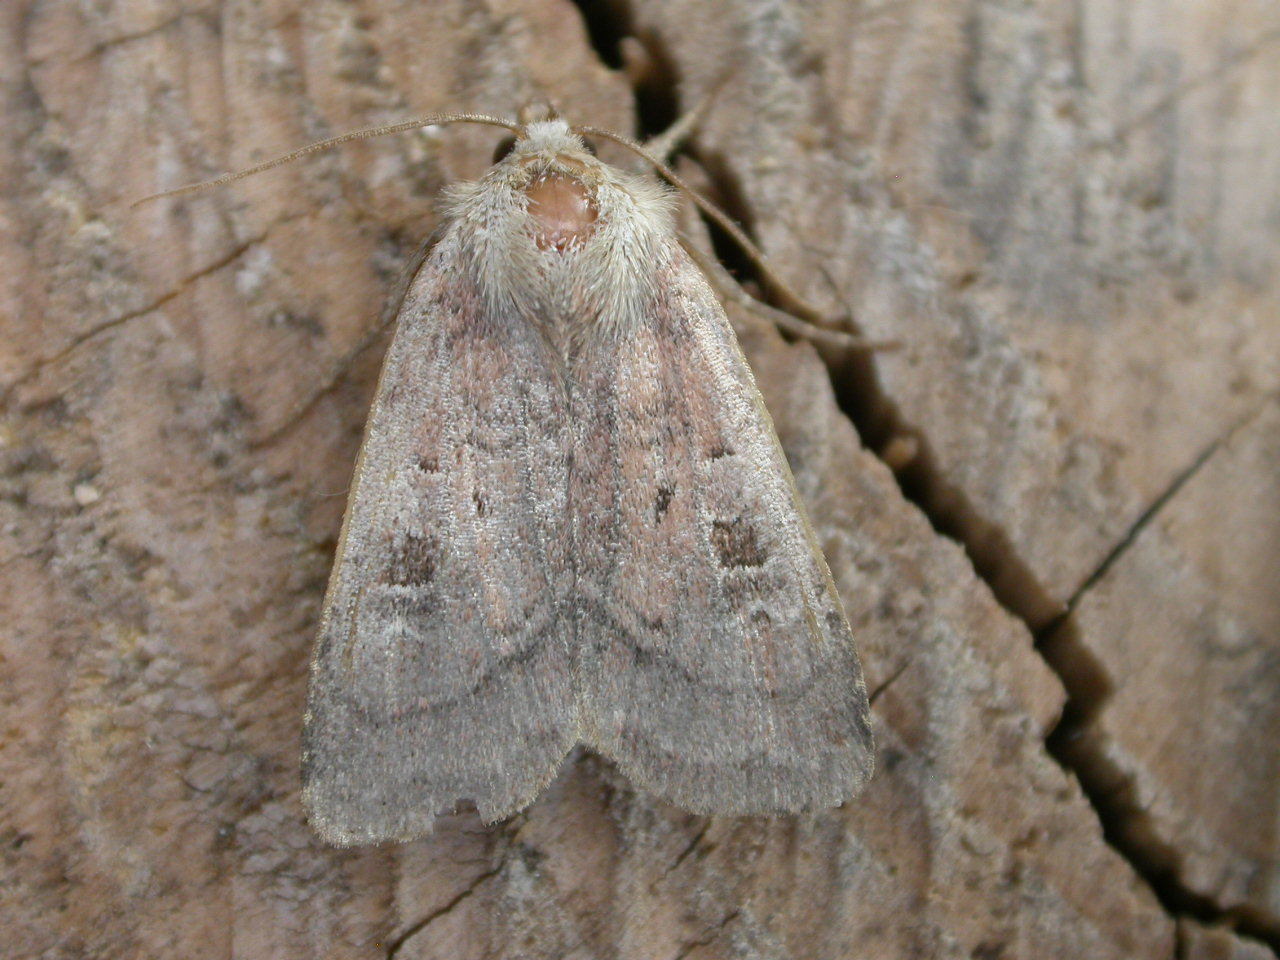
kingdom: Animalia
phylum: Arthropoda
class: Insecta
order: Lepidoptera
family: Noctuidae
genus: Diarsia
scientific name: Diarsia rubi
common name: Small square-spot
